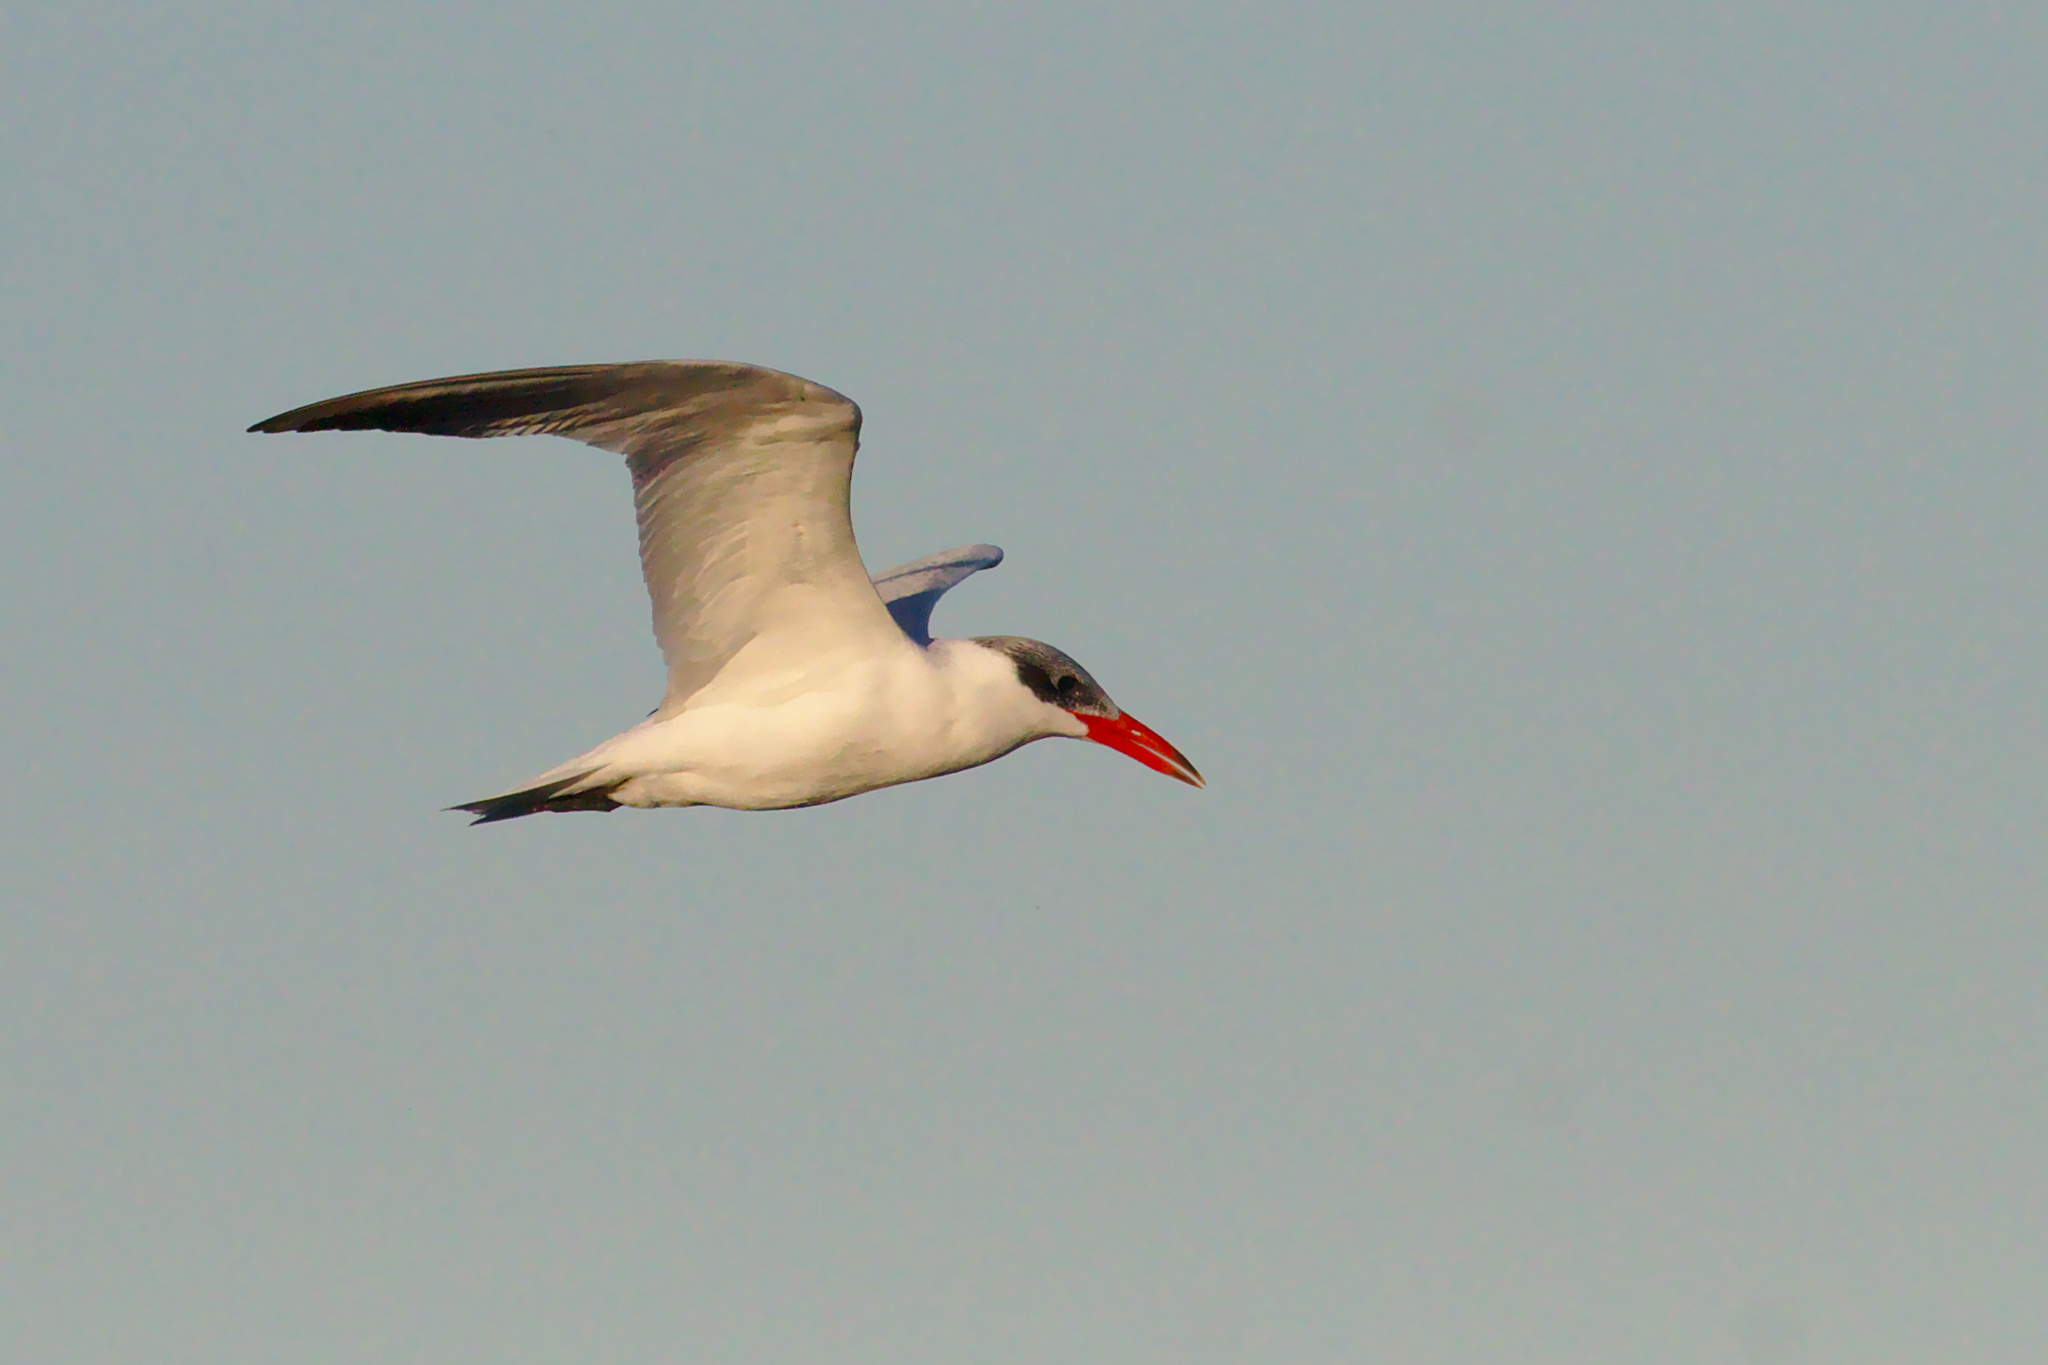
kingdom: Animalia
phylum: Chordata
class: Aves
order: Charadriiformes
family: Laridae
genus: Hydroprogne
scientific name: Hydroprogne caspia
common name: Caspian tern
